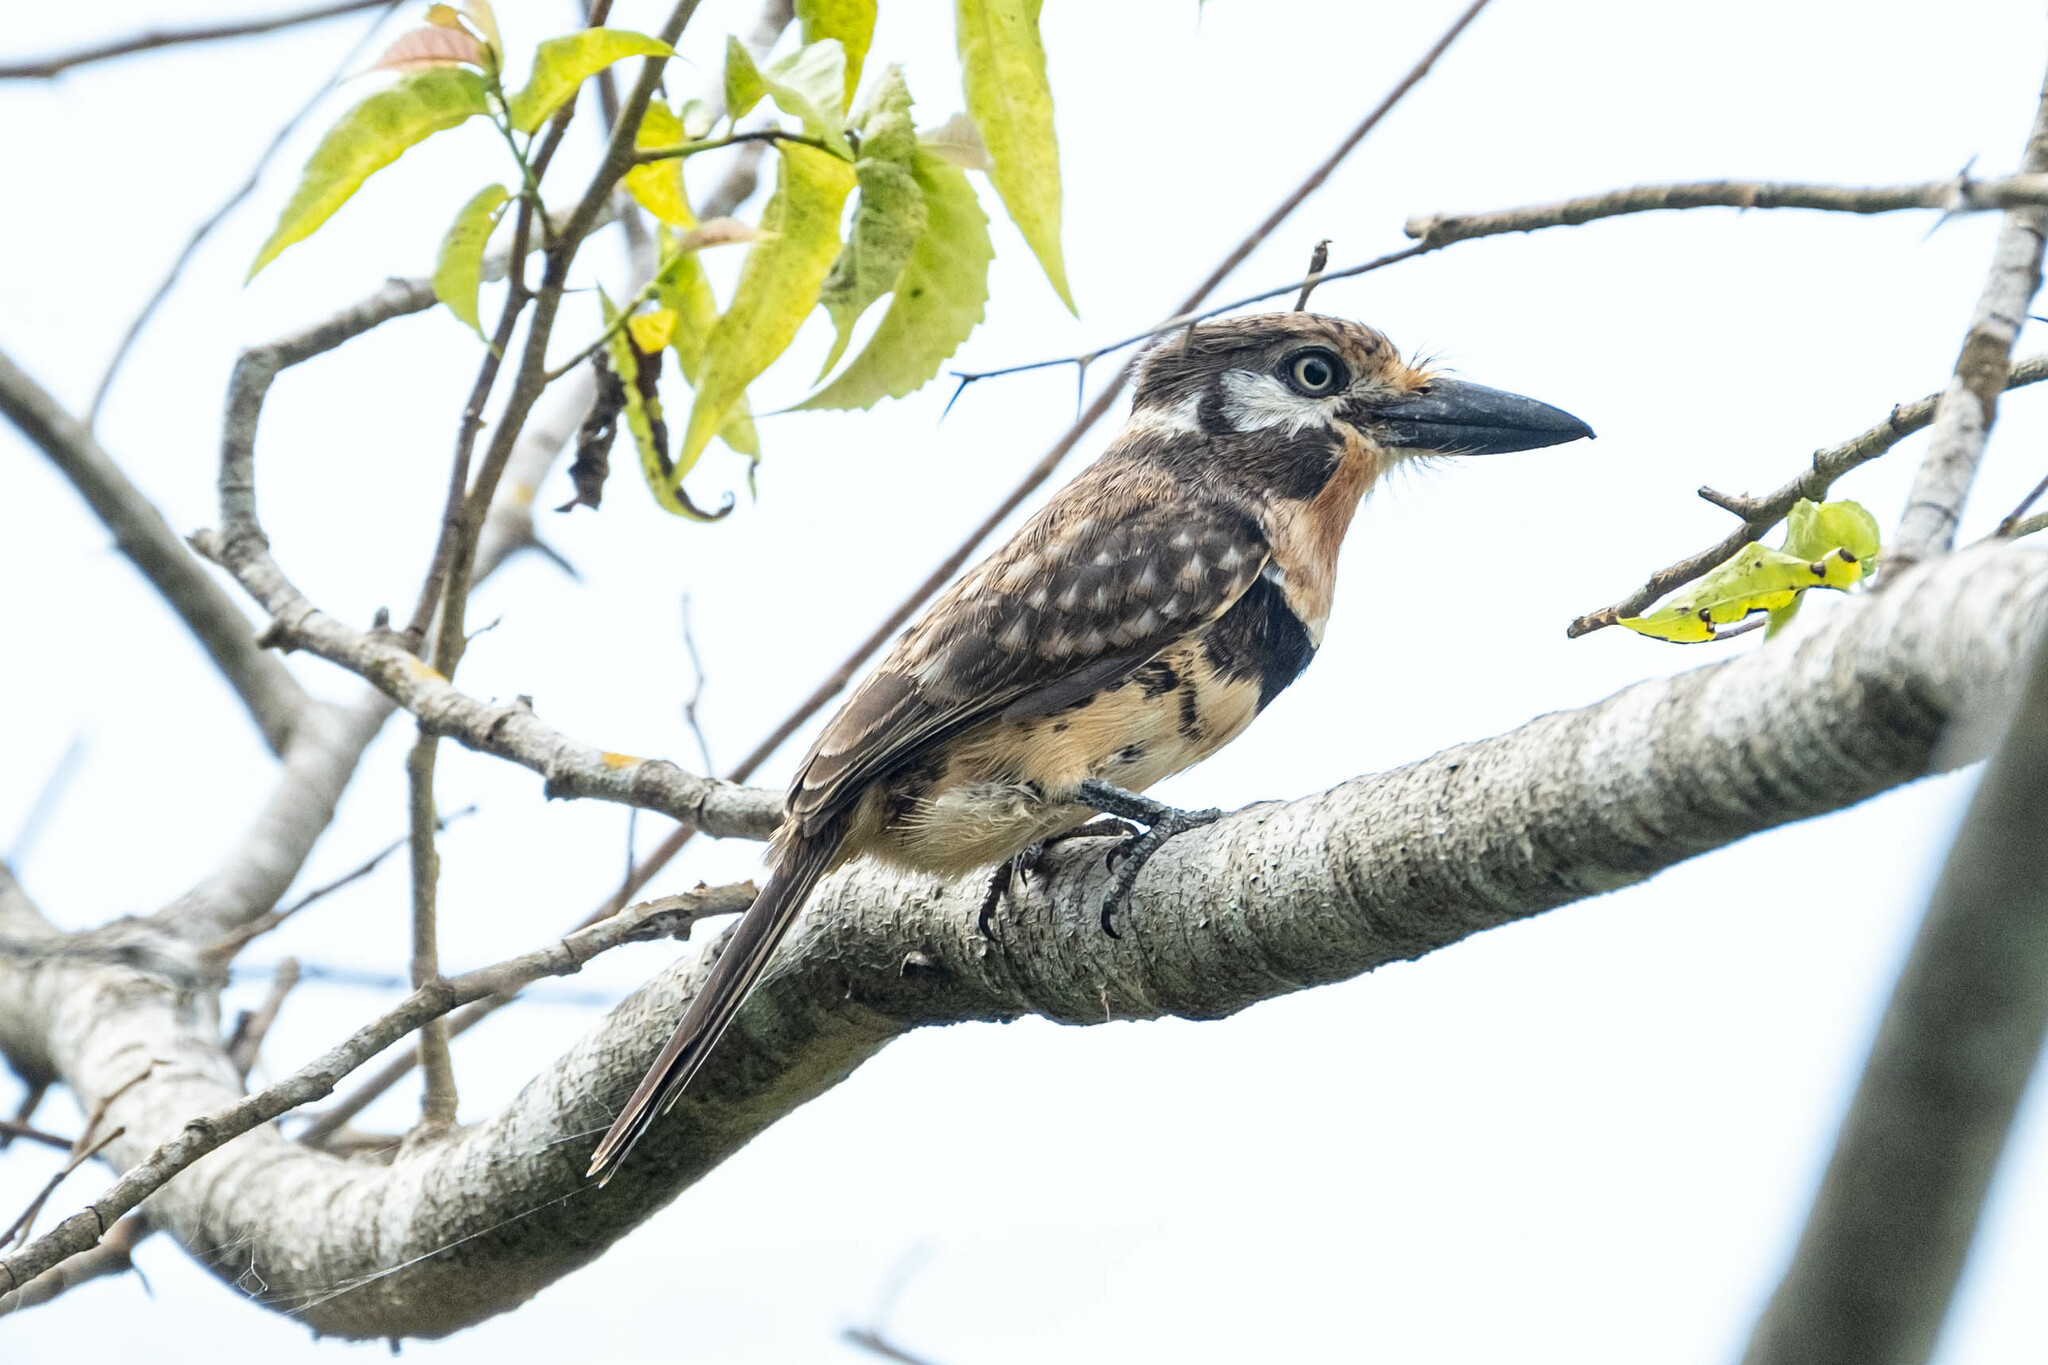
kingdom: Animalia
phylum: Chordata
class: Aves
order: Piciformes
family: Bucconidae
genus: Hypnelus
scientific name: Hypnelus ruficollis
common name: Russet-throated puffbird
